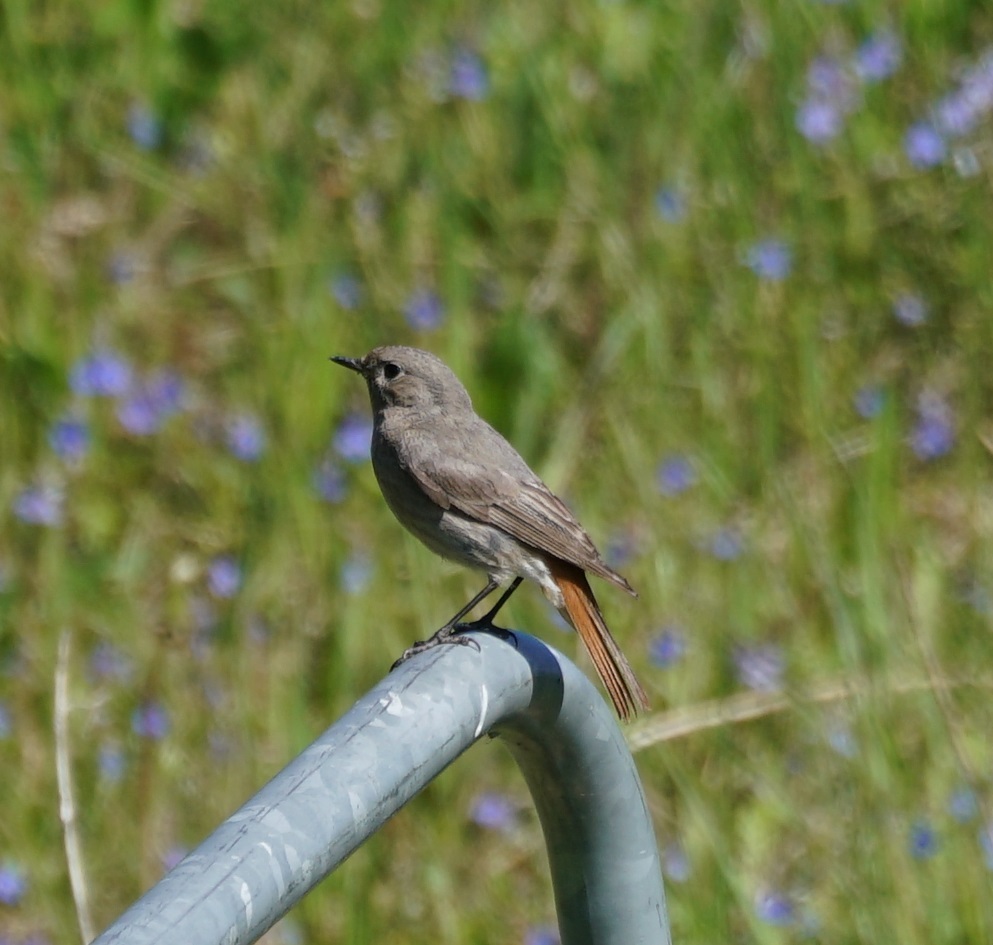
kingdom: Animalia
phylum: Chordata
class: Aves
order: Passeriformes
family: Muscicapidae
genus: Phoenicurus
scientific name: Phoenicurus ochruros
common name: Black redstart
